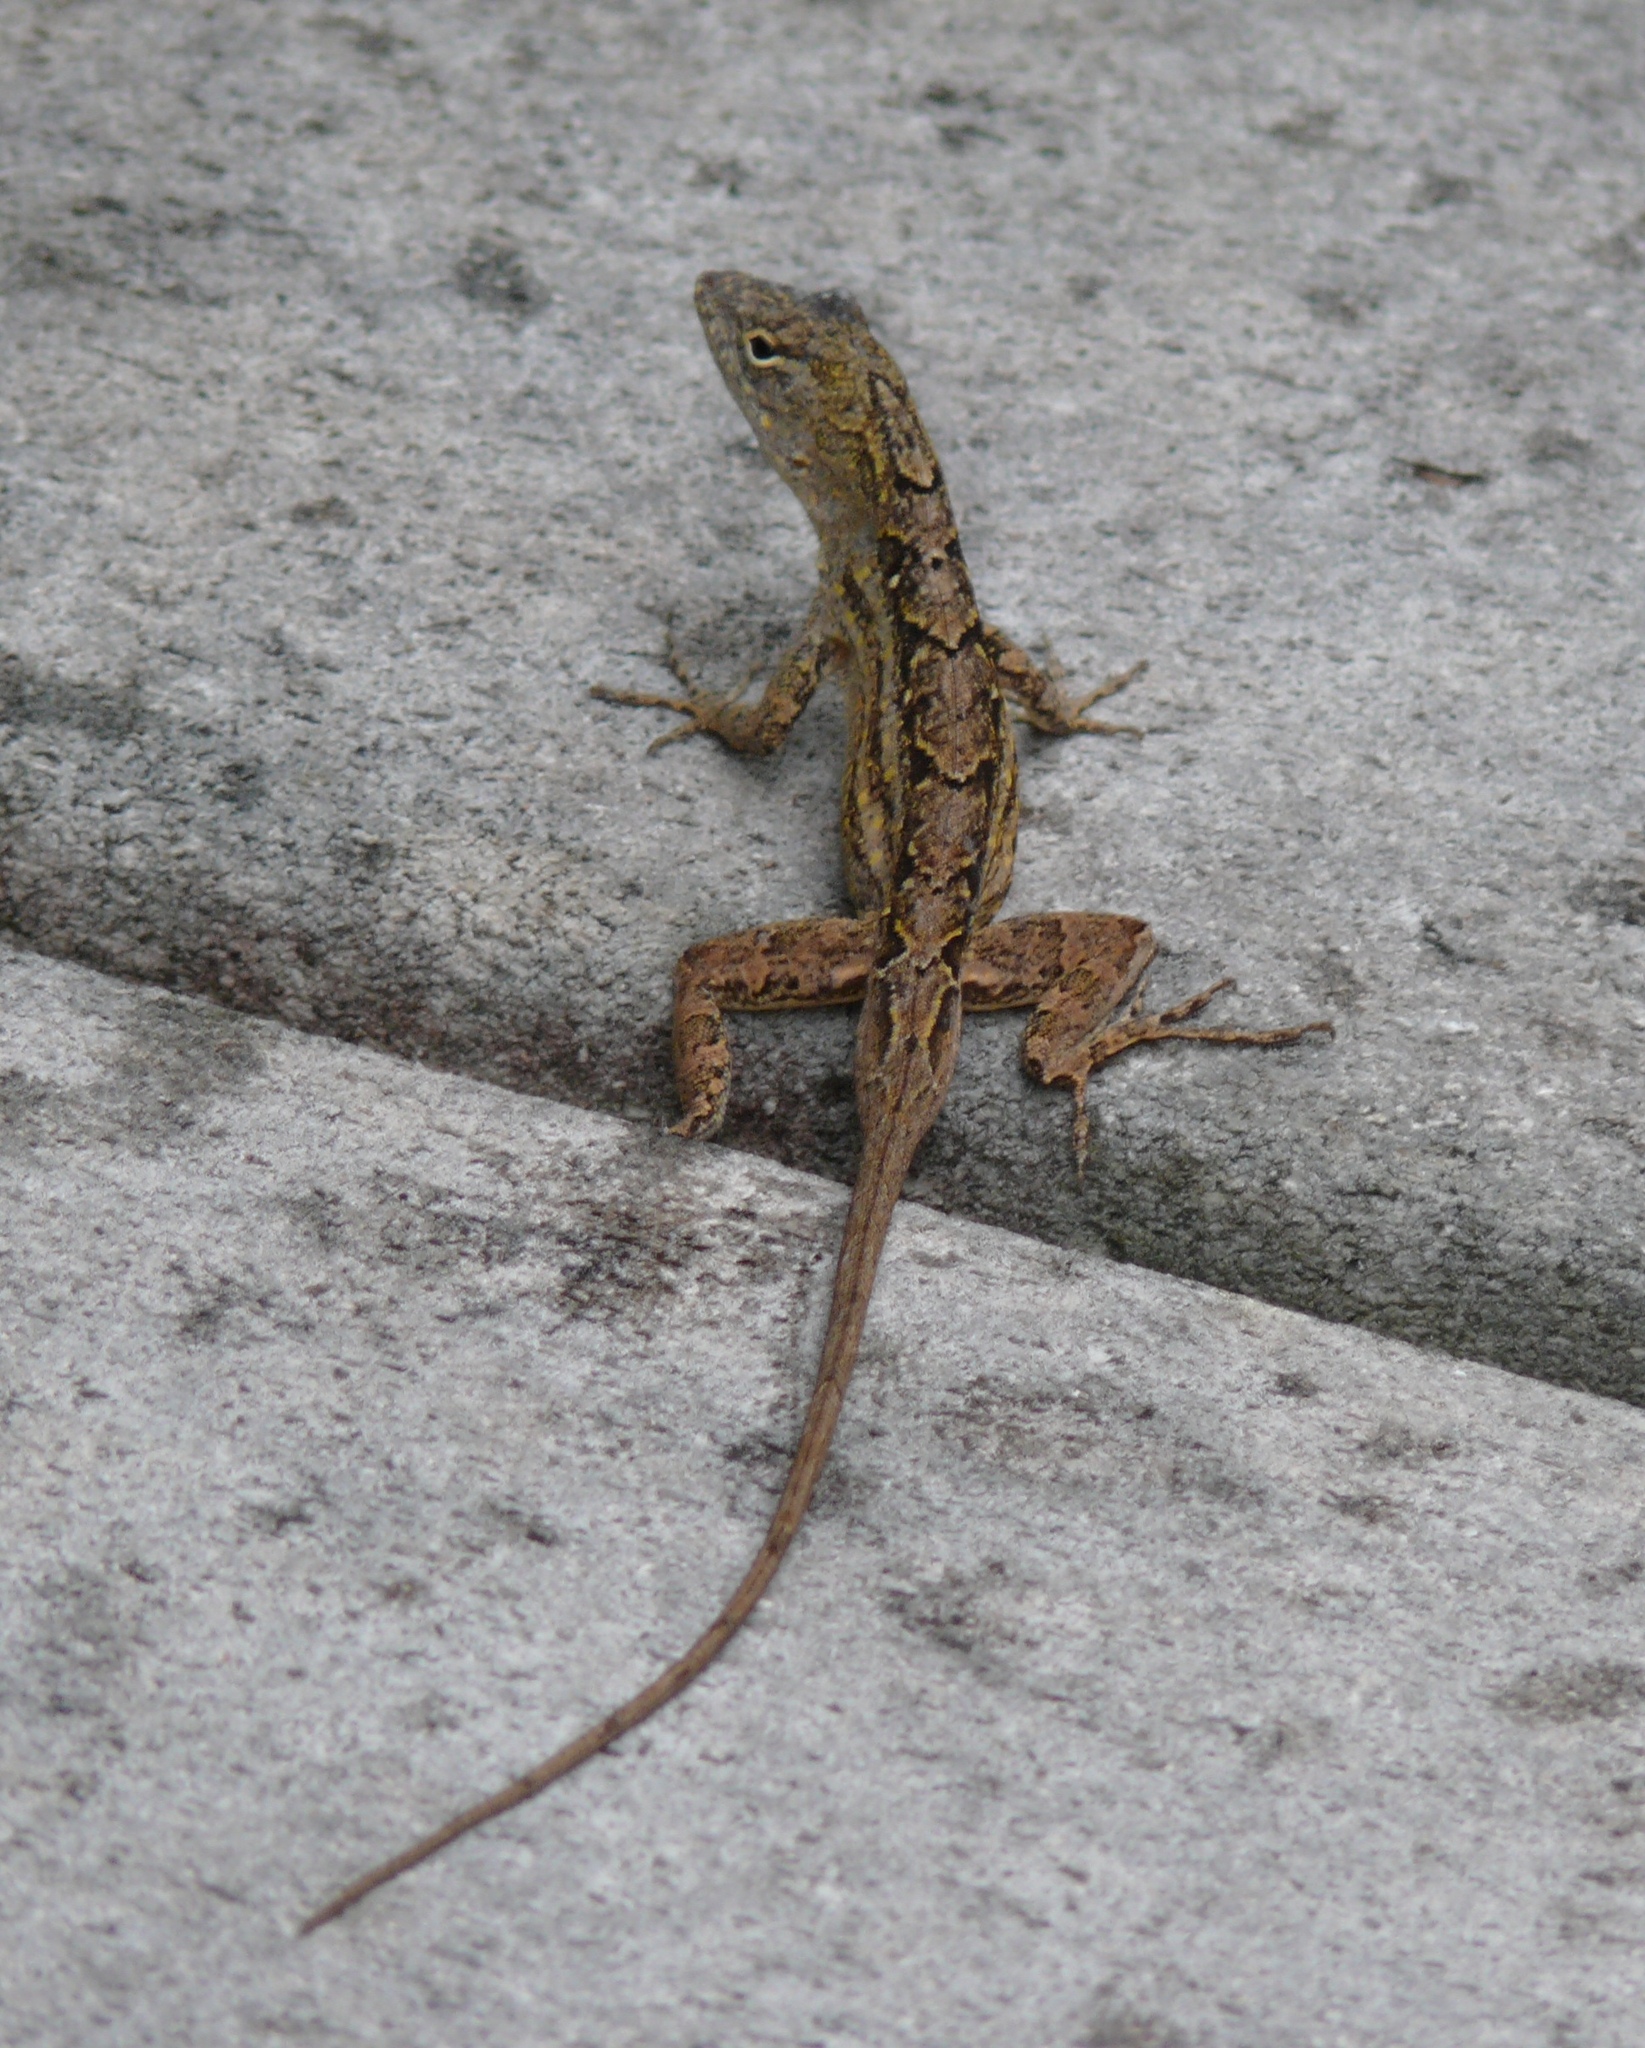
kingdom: Animalia
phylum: Chordata
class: Squamata
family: Dactyloidae
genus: Anolis
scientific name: Anolis sagrei
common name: Brown anole
